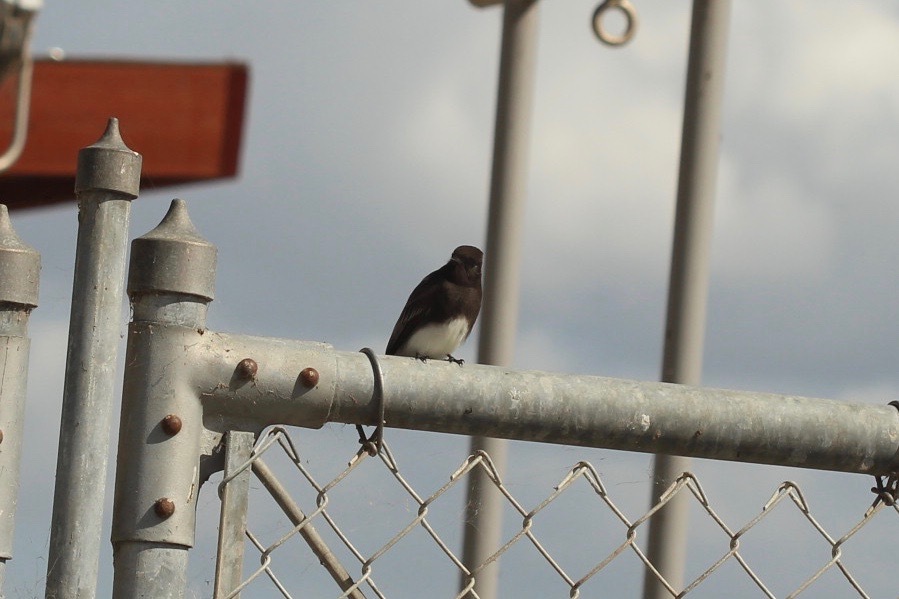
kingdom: Animalia
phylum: Chordata
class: Aves
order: Passeriformes
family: Tyrannidae
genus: Sayornis
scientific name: Sayornis nigricans
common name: Black phoebe
